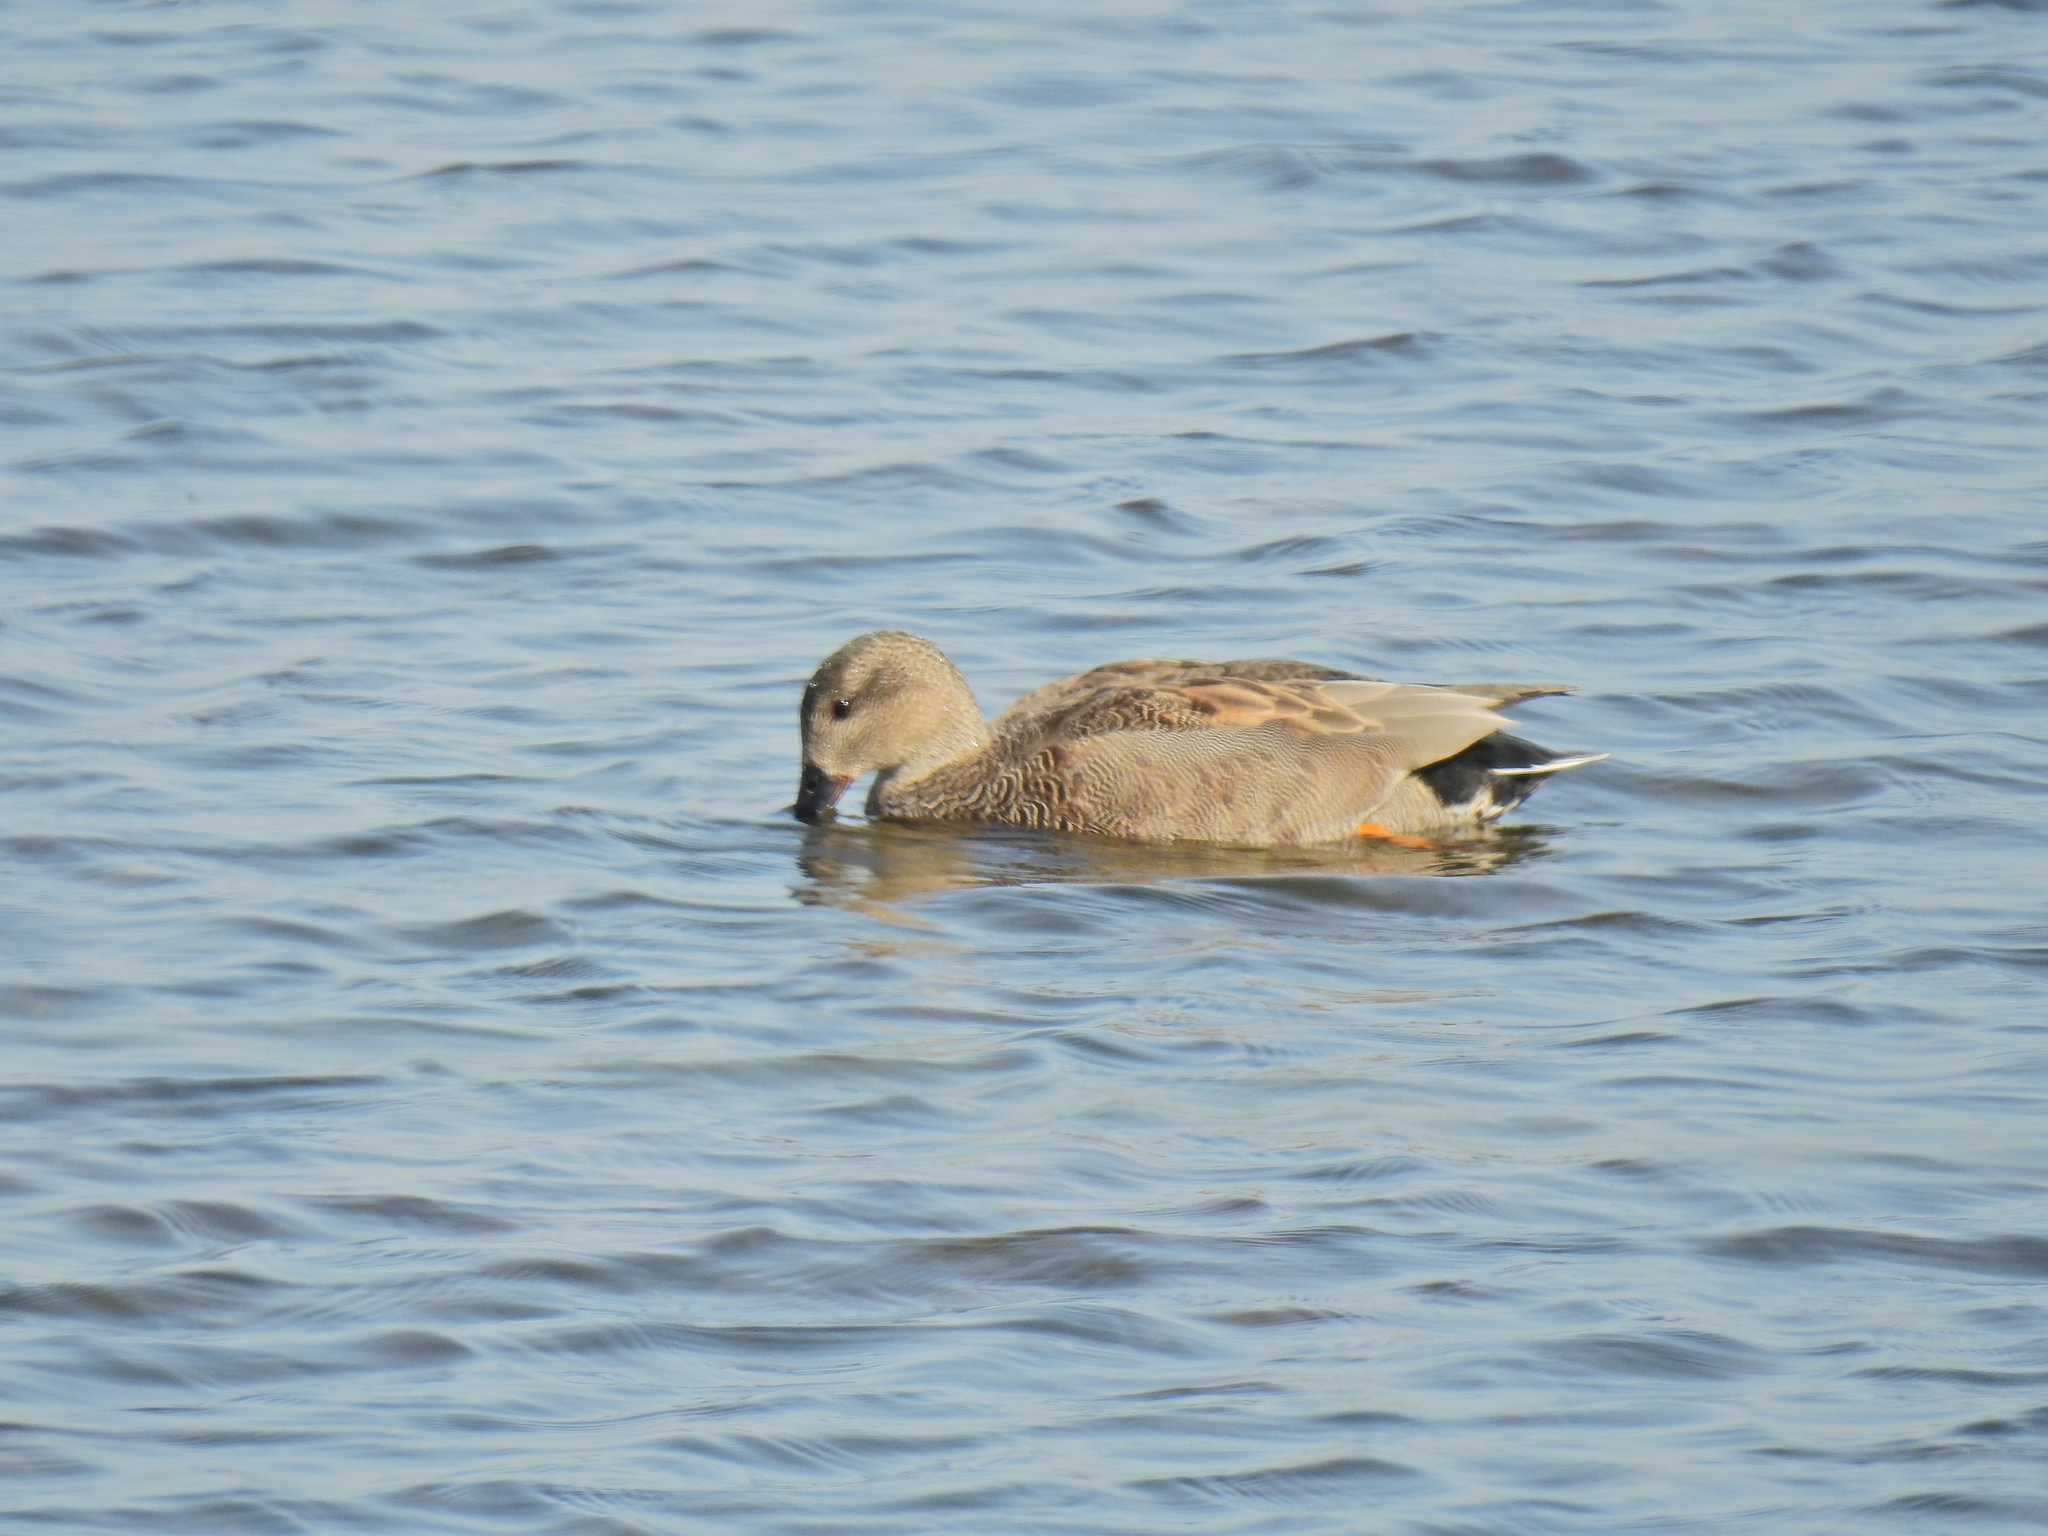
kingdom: Animalia
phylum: Chordata
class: Aves
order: Anseriformes
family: Anatidae
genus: Mareca
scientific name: Mareca strepera
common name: Gadwall
